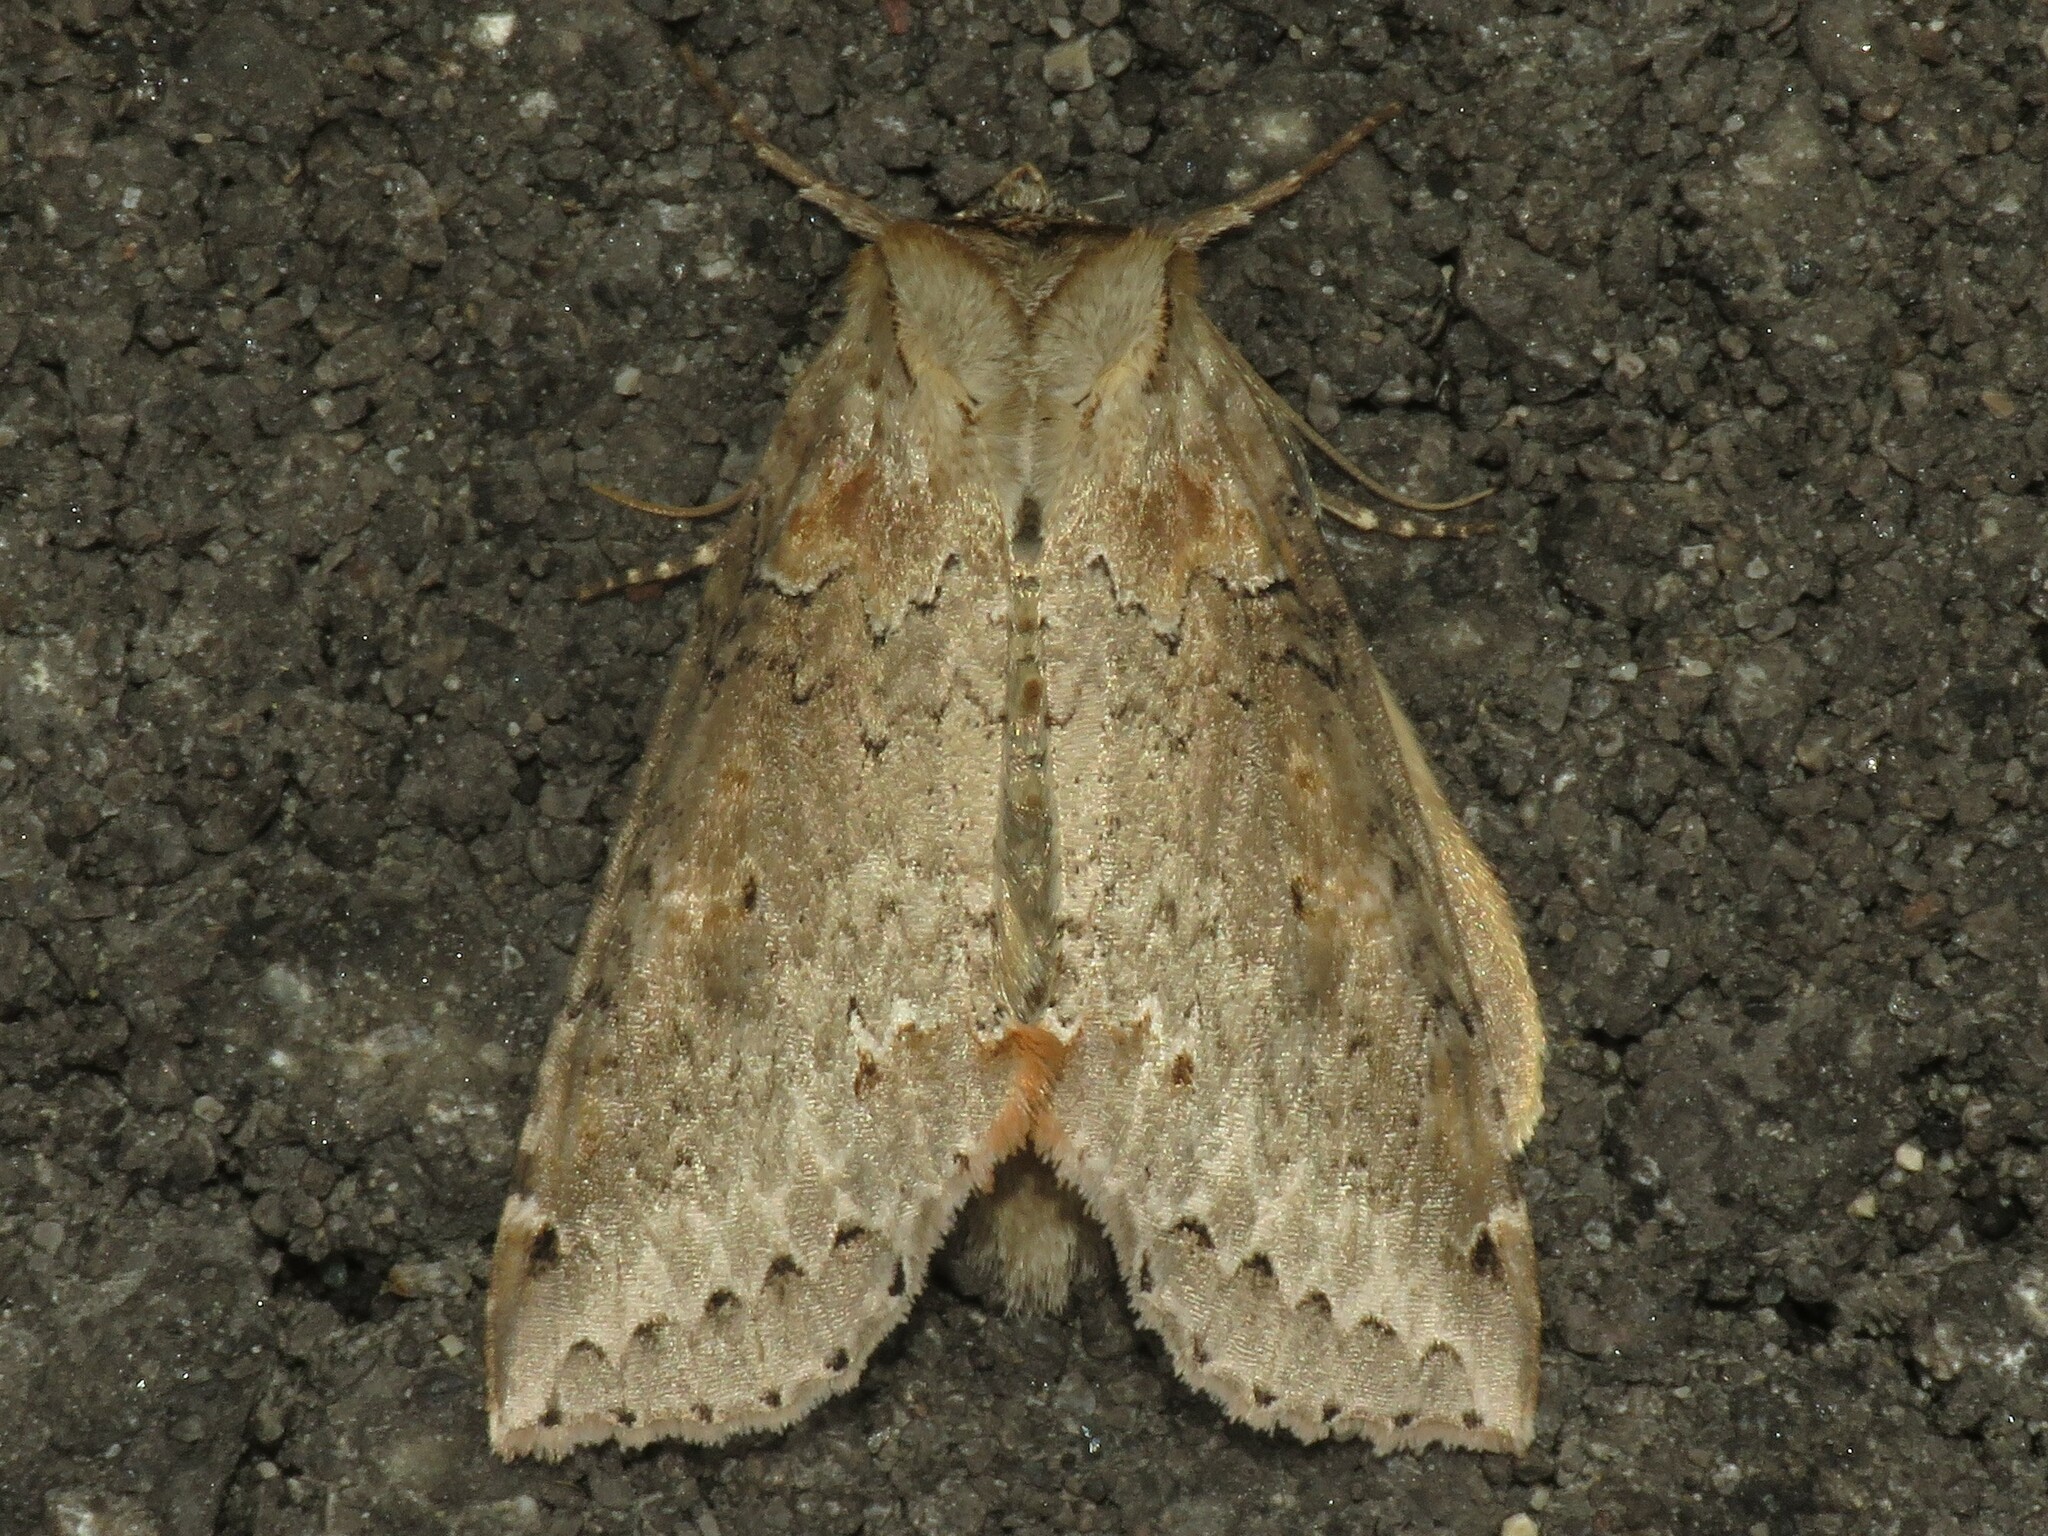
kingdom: Animalia
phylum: Arthropoda
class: Insecta
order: Lepidoptera
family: Drepanidae
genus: Pseudothyatira
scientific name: Pseudothyatira cymatophoroides
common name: Tufted thyatirid moth
